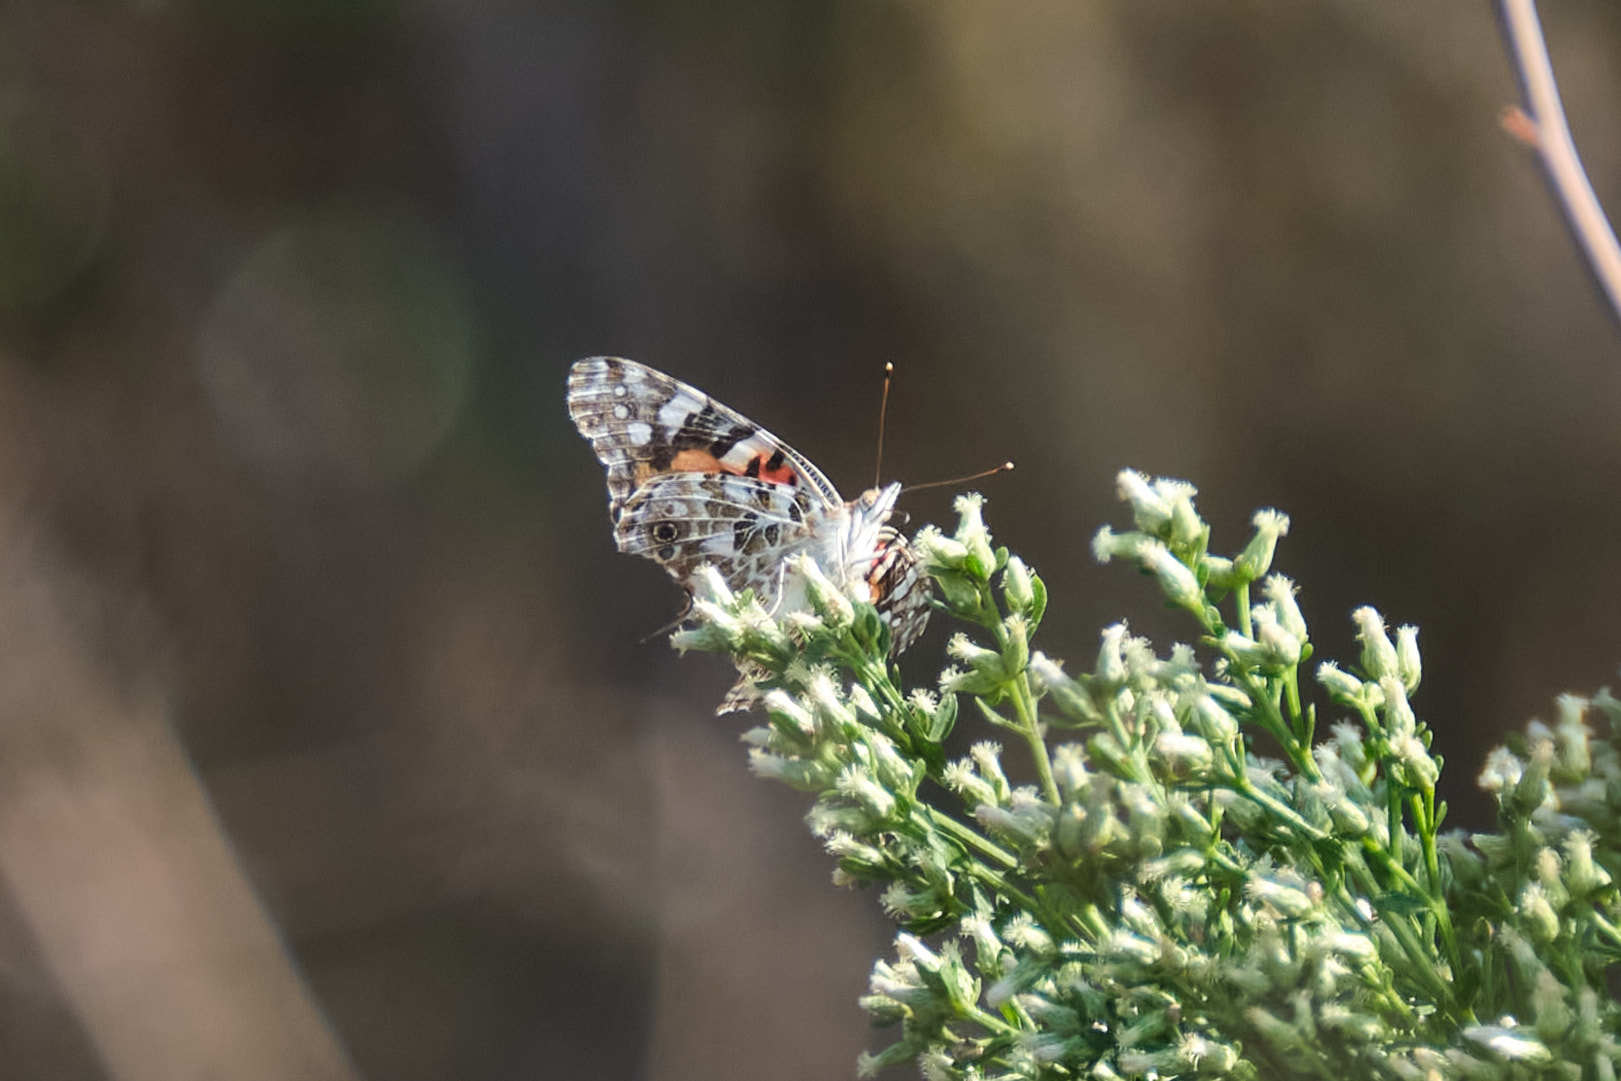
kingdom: Animalia
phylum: Arthropoda
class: Insecta
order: Lepidoptera
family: Nymphalidae
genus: Vanessa
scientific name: Vanessa cardui
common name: Painted lady
